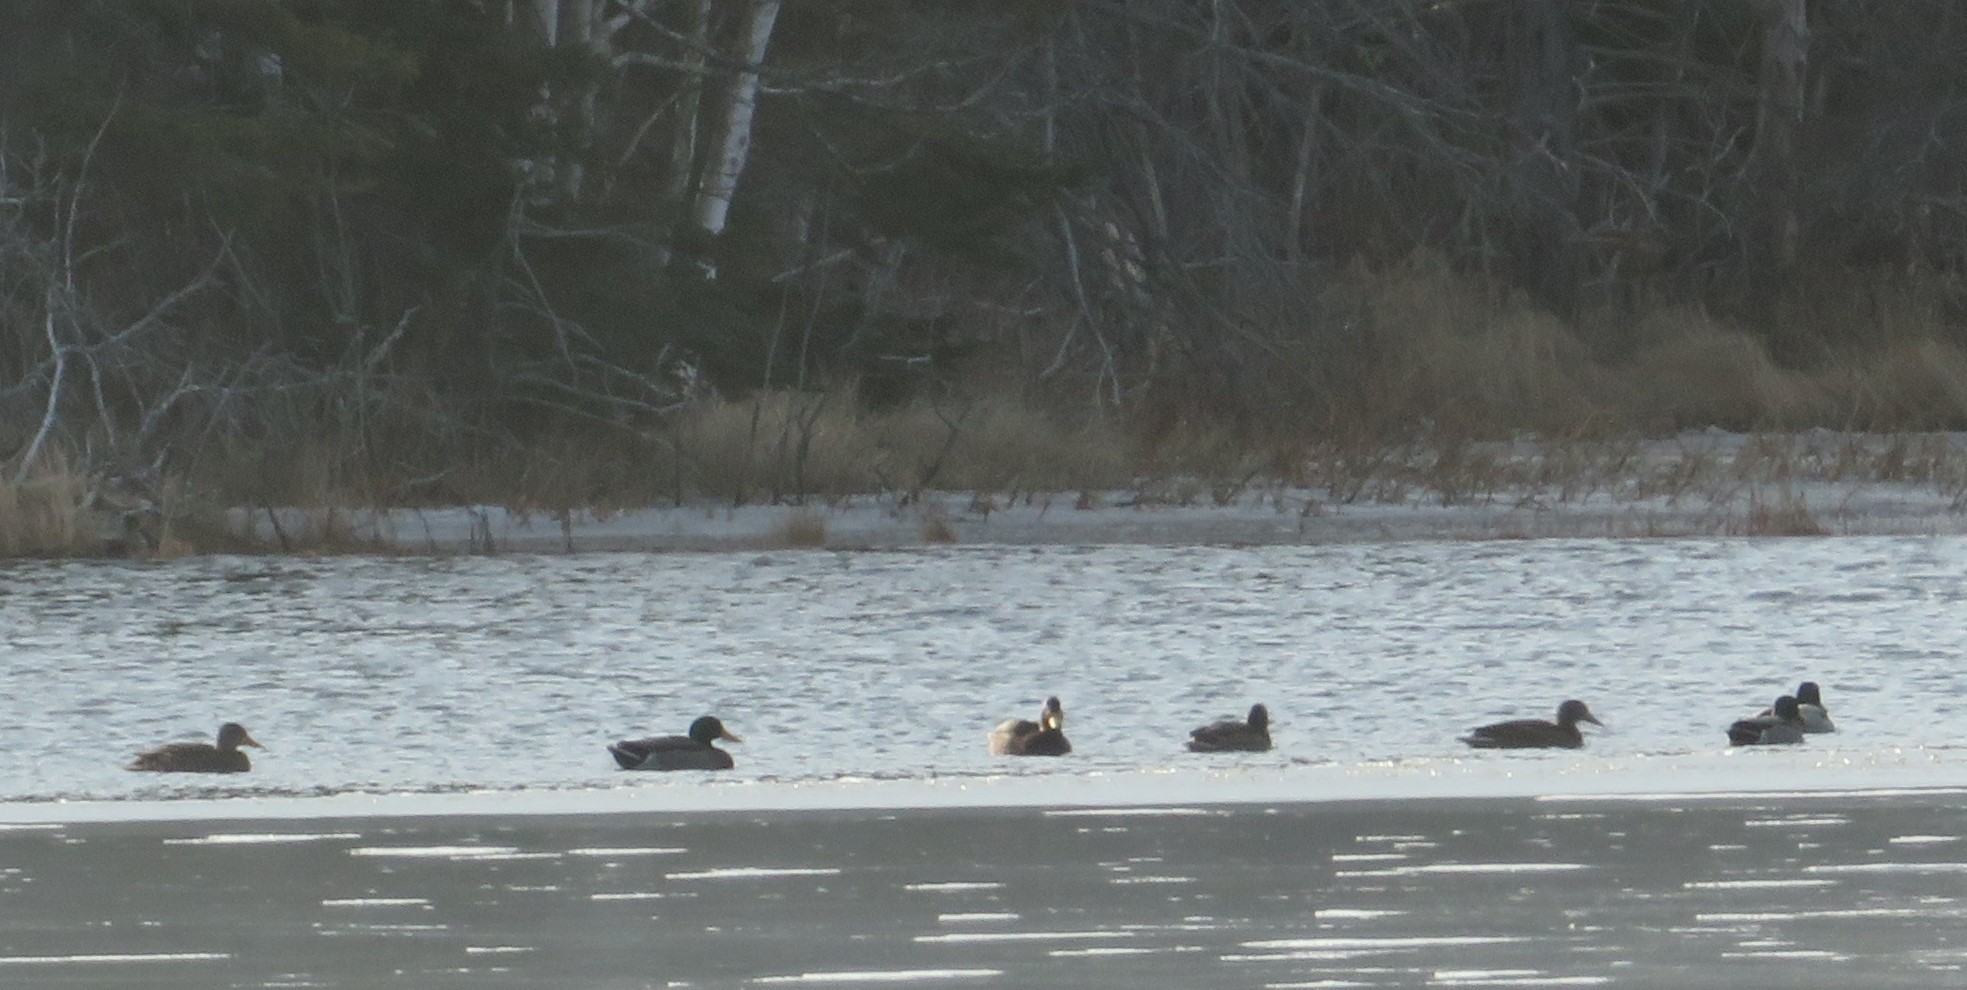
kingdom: Animalia
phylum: Chordata
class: Aves
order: Anseriformes
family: Anatidae
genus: Anas
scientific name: Anas platyrhynchos
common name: Mallard
